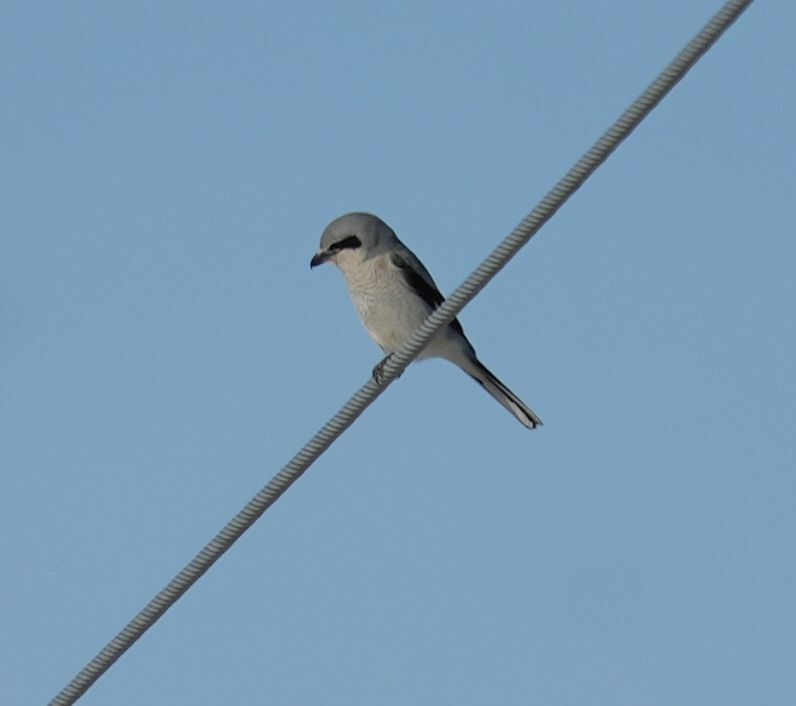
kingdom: Animalia
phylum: Chordata
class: Aves
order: Passeriformes
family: Laniidae
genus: Lanius
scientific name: Lanius borealis
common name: Northern shrike
